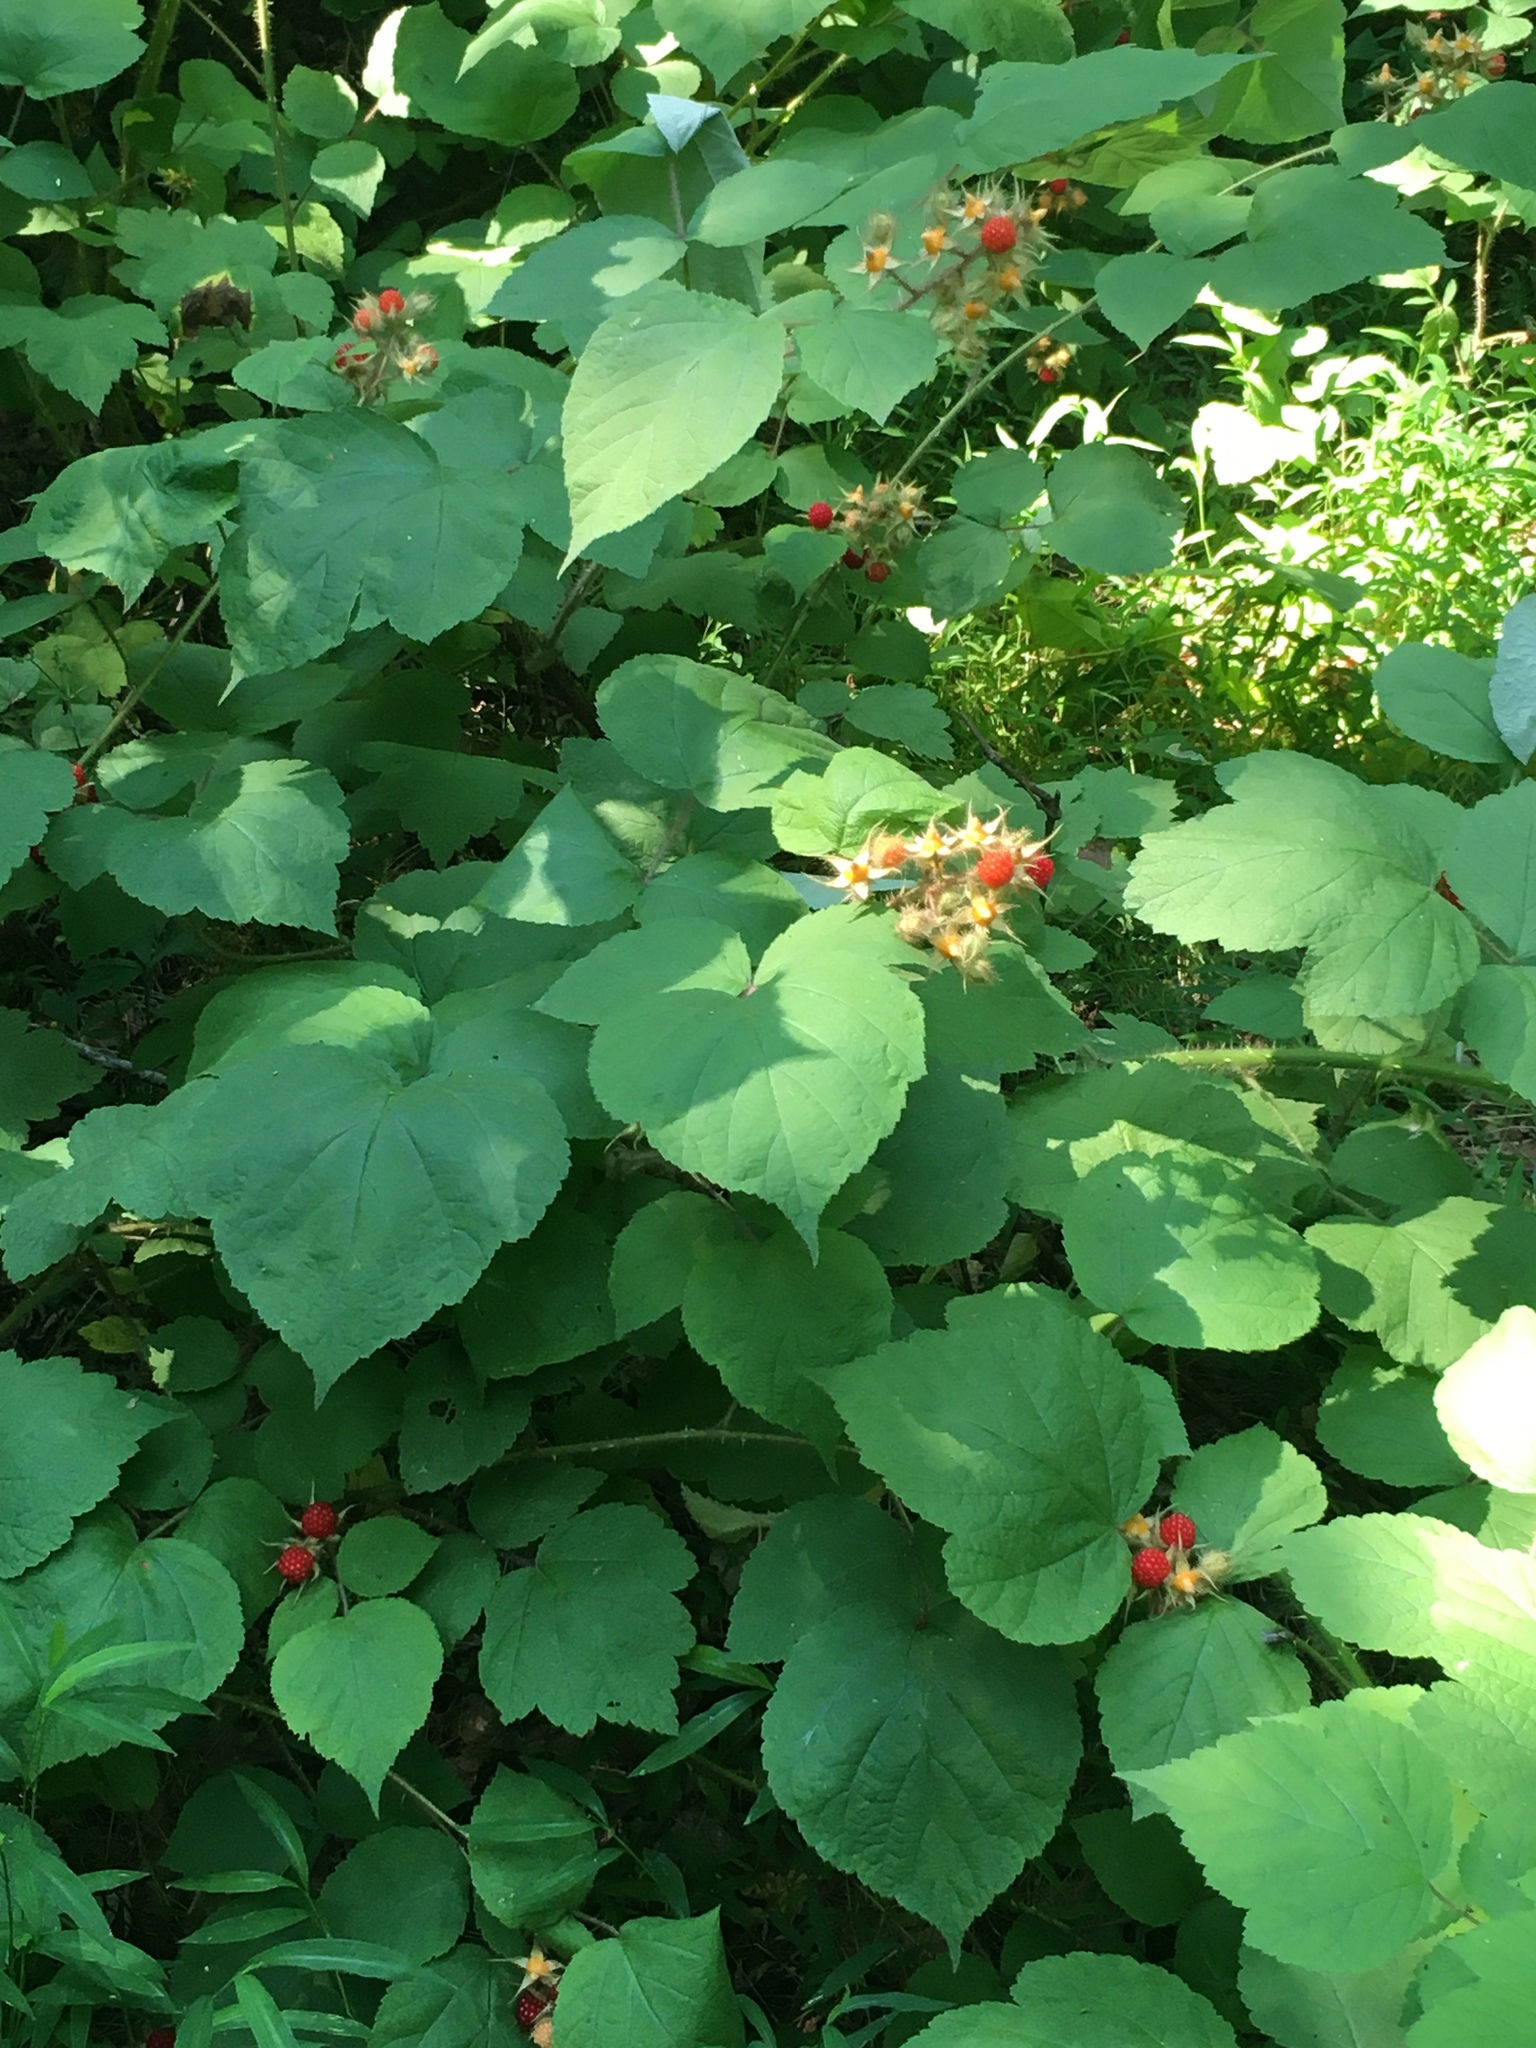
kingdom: Plantae
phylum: Tracheophyta
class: Magnoliopsida
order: Rosales
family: Rosaceae
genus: Rubus
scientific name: Rubus phoenicolasius
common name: Japanese wineberry
